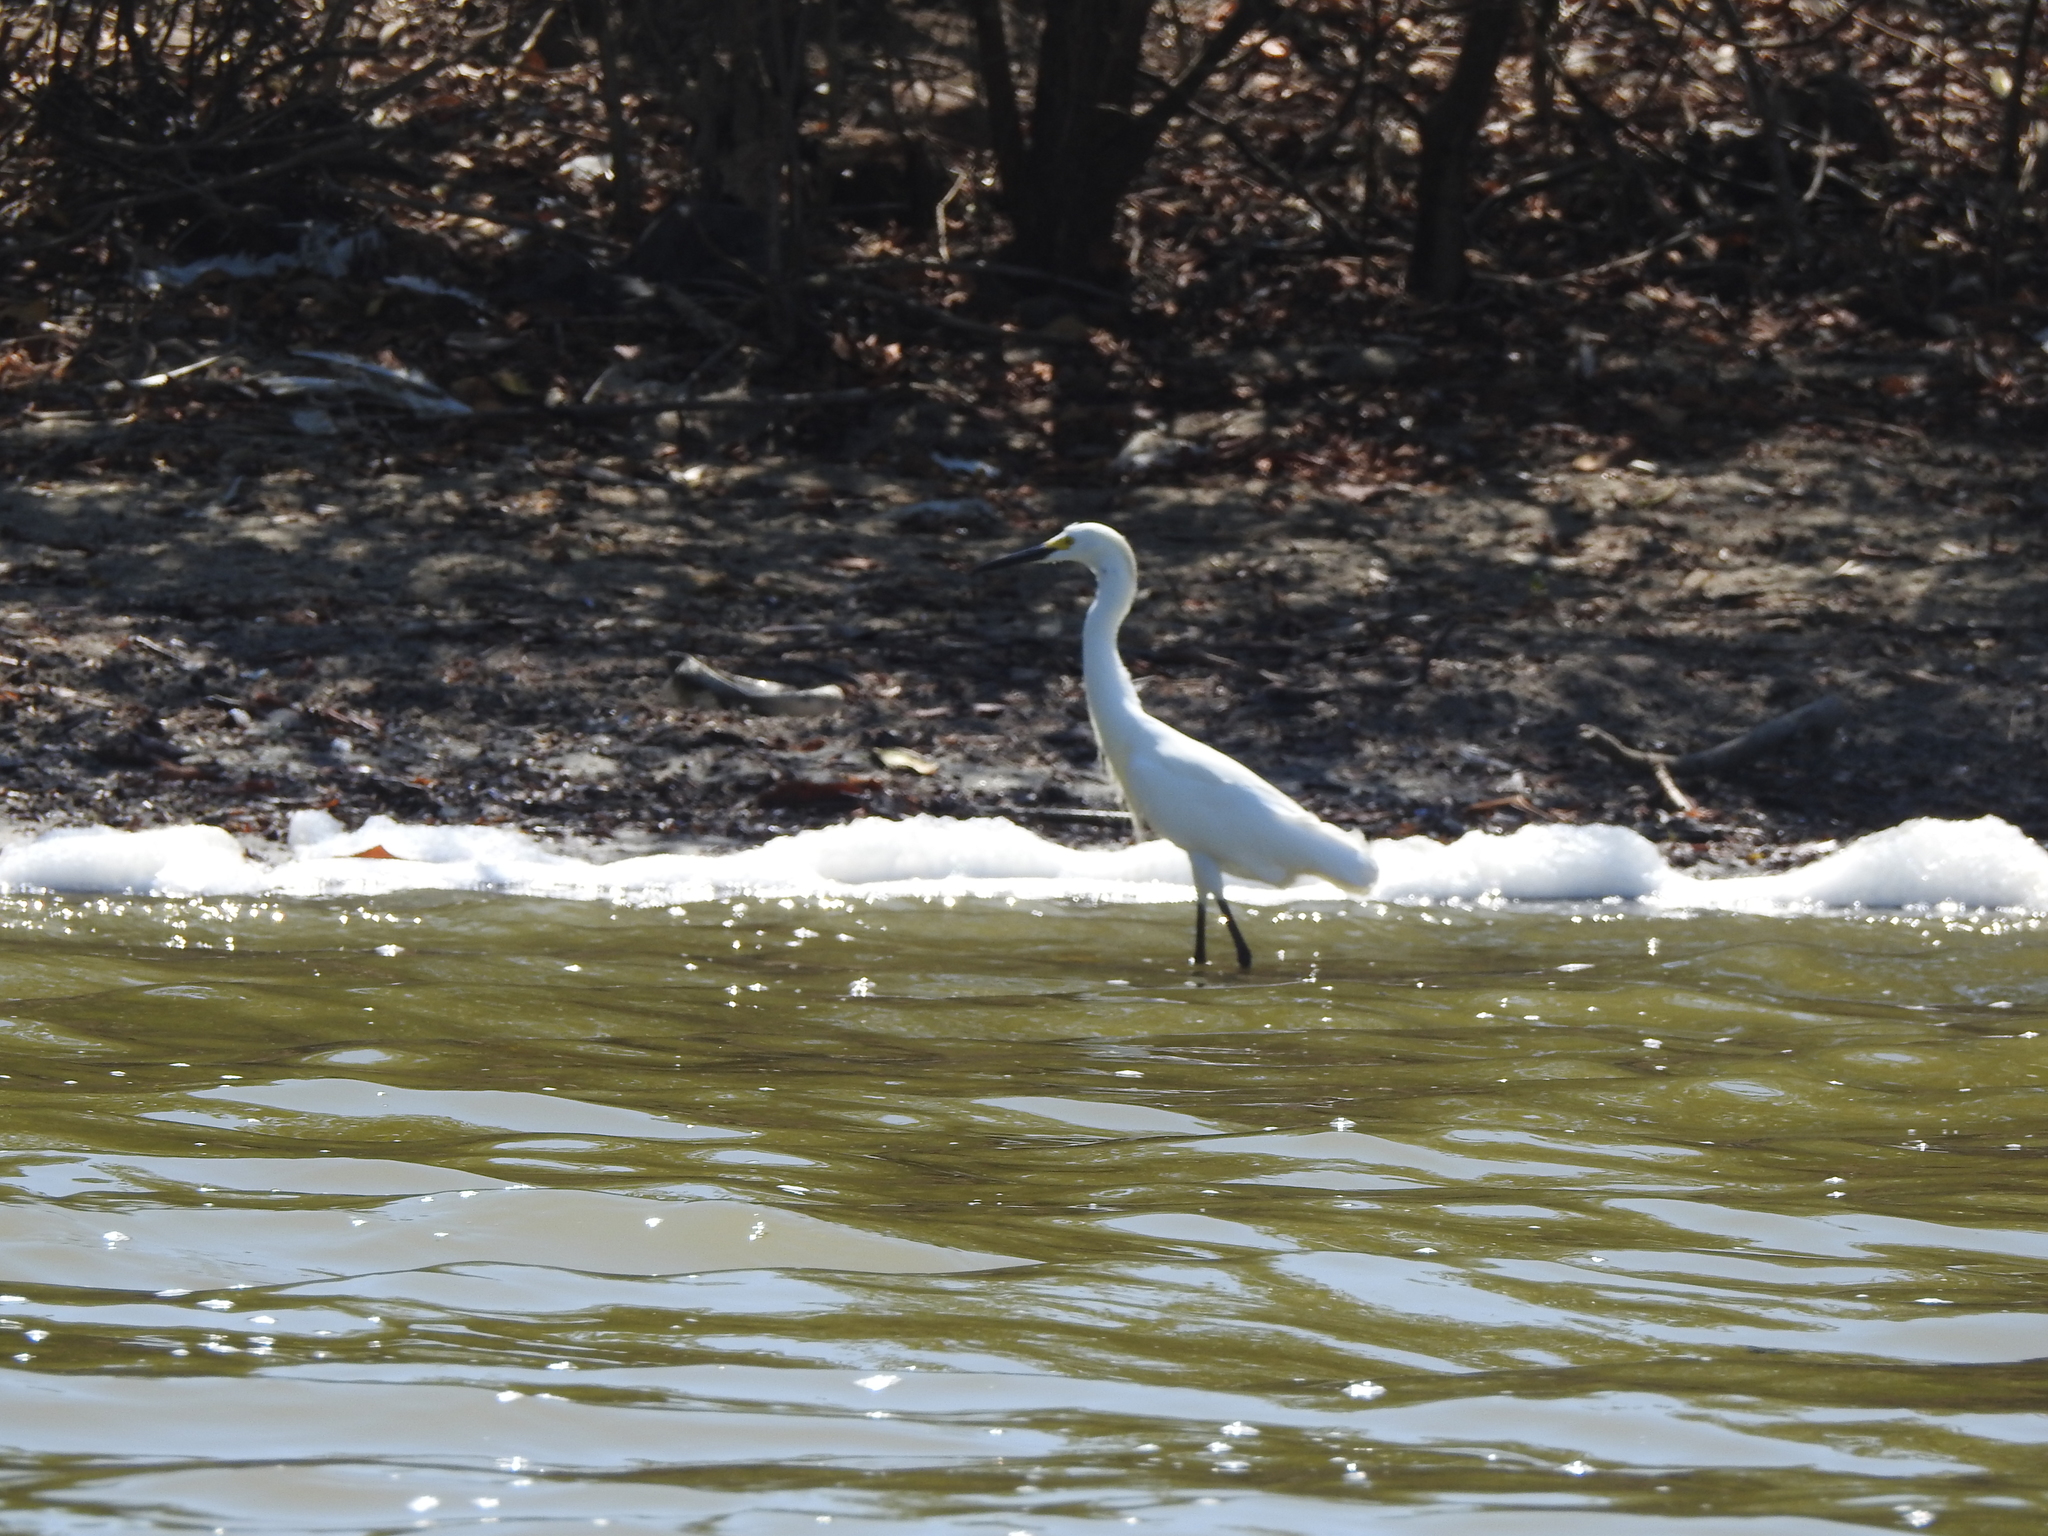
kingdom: Animalia
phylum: Chordata
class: Aves
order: Pelecaniformes
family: Ardeidae
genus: Egretta
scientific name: Egretta thula
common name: Snowy egret
